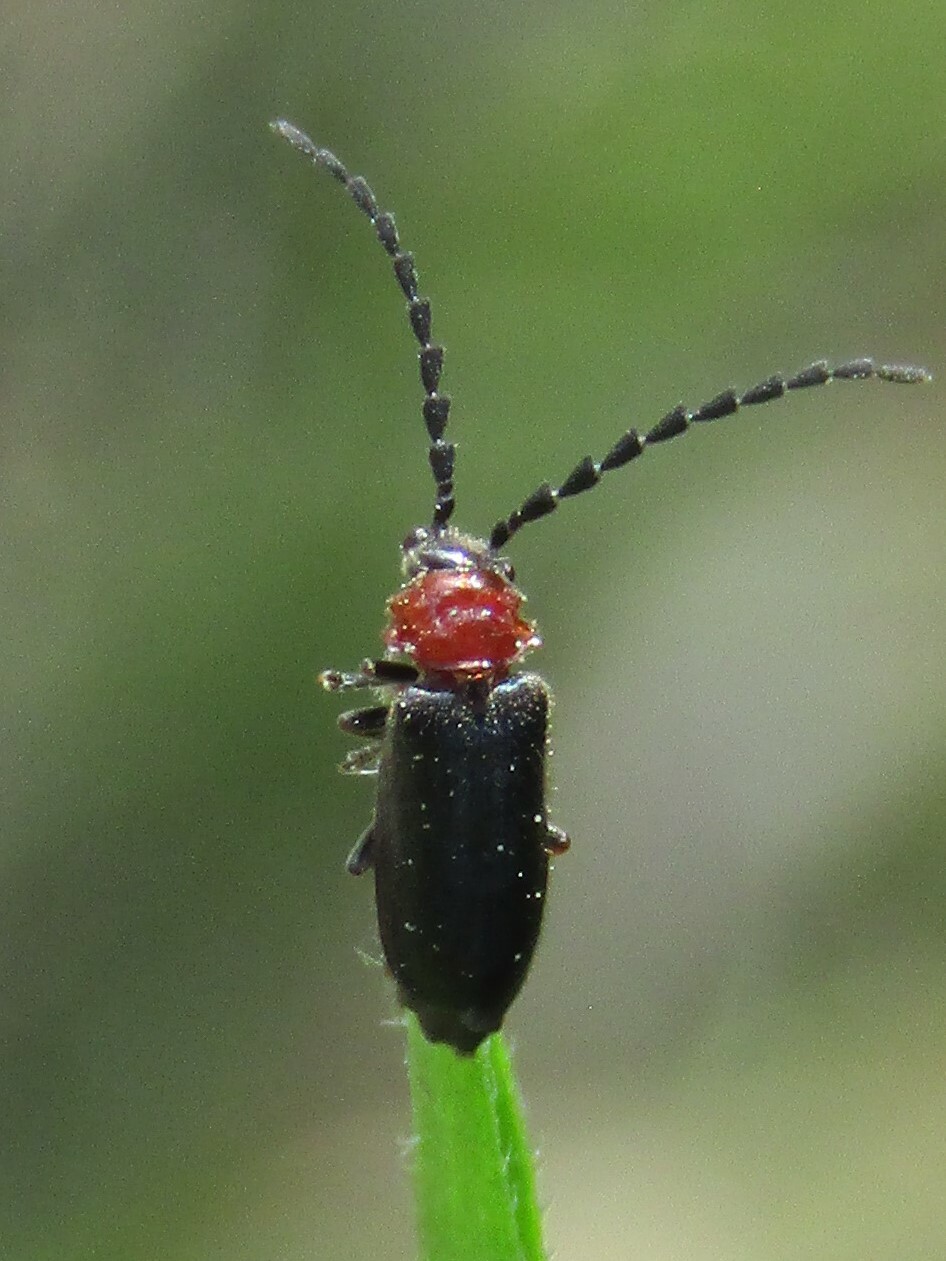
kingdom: Animalia
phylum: Arthropoda
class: Insecta
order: Coleoptera
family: Cantharidae
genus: Ditemnus
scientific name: Ditemnus latilobus
